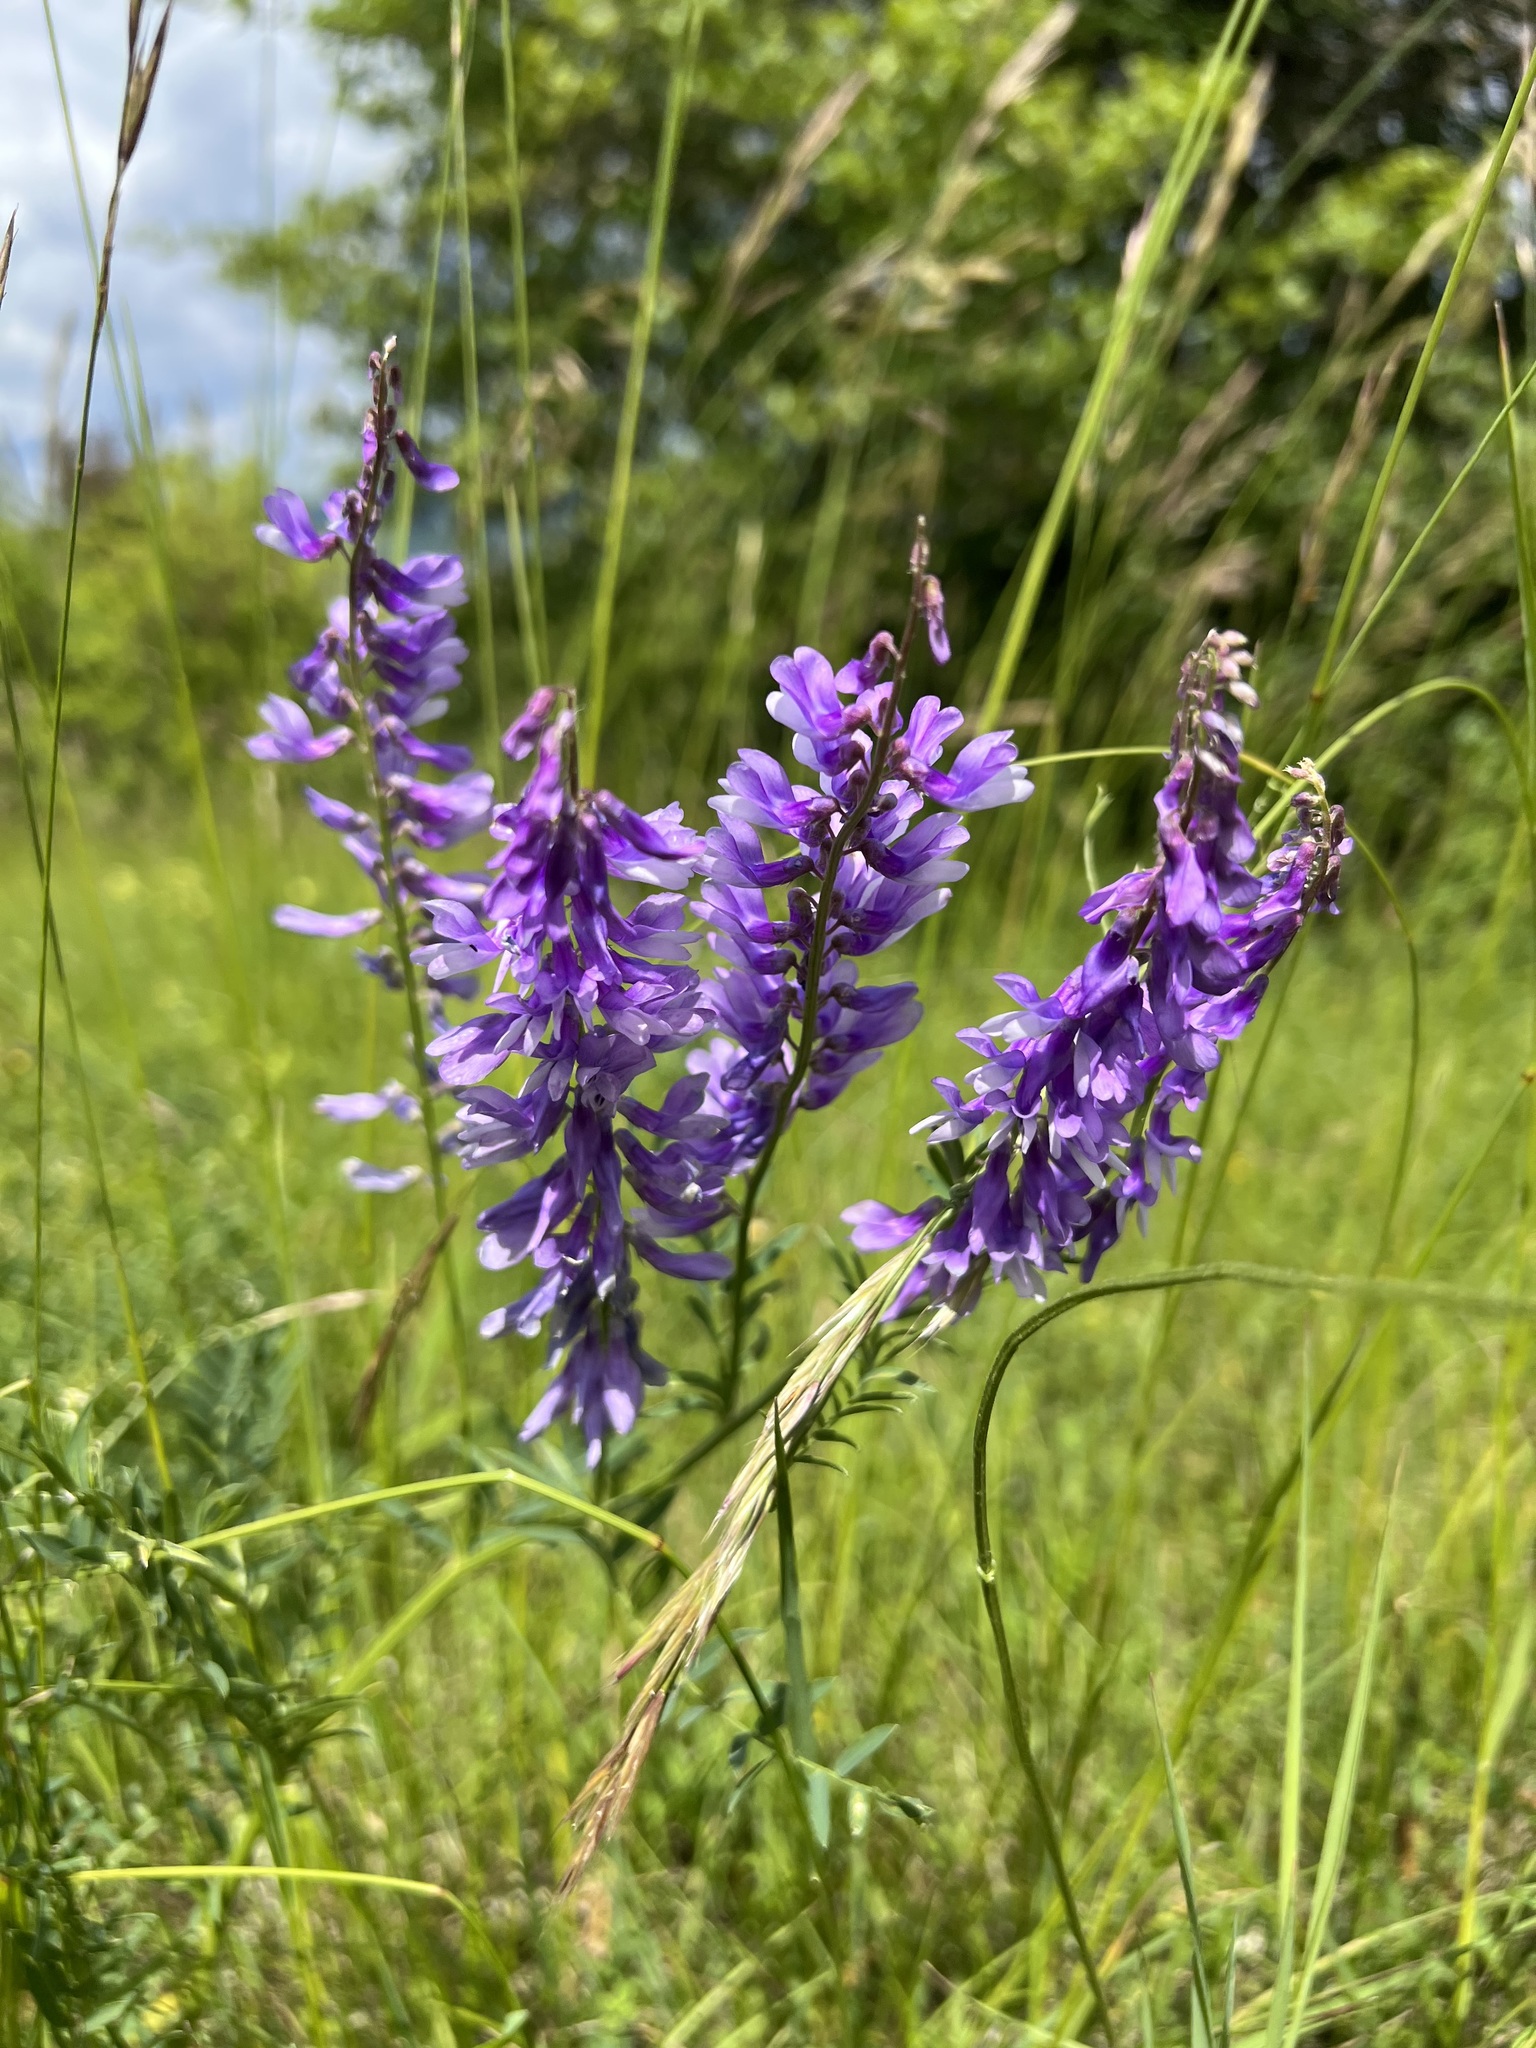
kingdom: Plantae
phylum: Tracheophyta
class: Magnoliopsida
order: Fabales
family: Fabaceae
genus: Vicia
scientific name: Vicia tenuifolia
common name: Fine-leaved vetch
